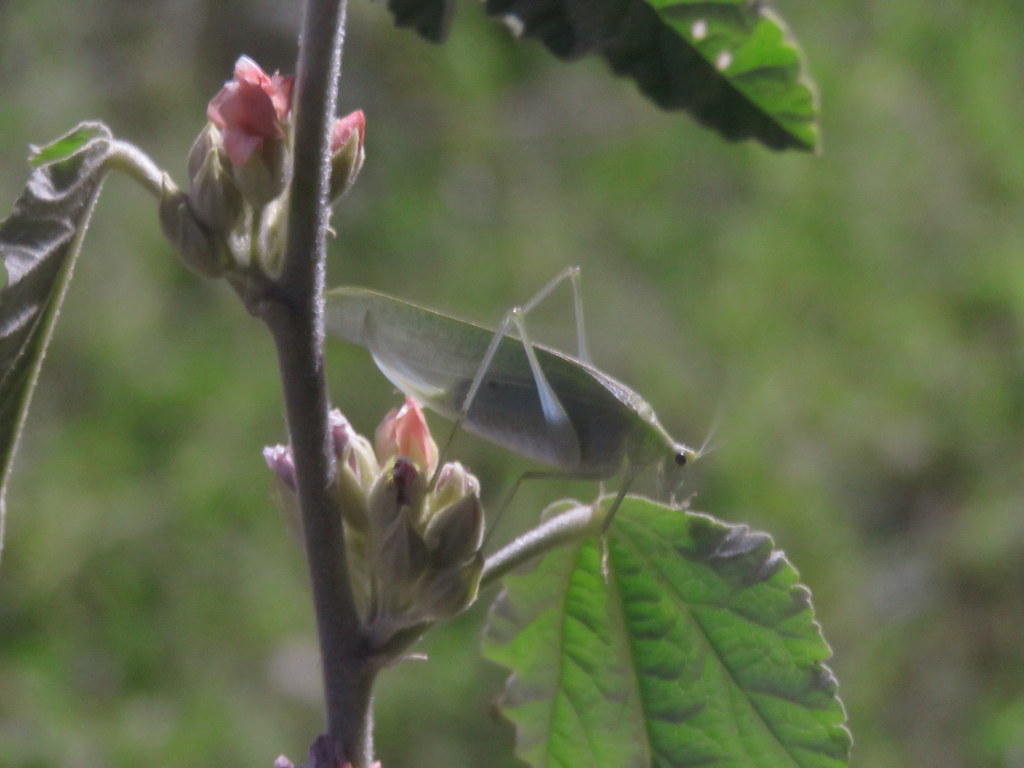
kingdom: Animalia
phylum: Arthropoda
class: Insecta
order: Orthoptera
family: Tettigoniidae
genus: Grammadera
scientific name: Grammadera clara
